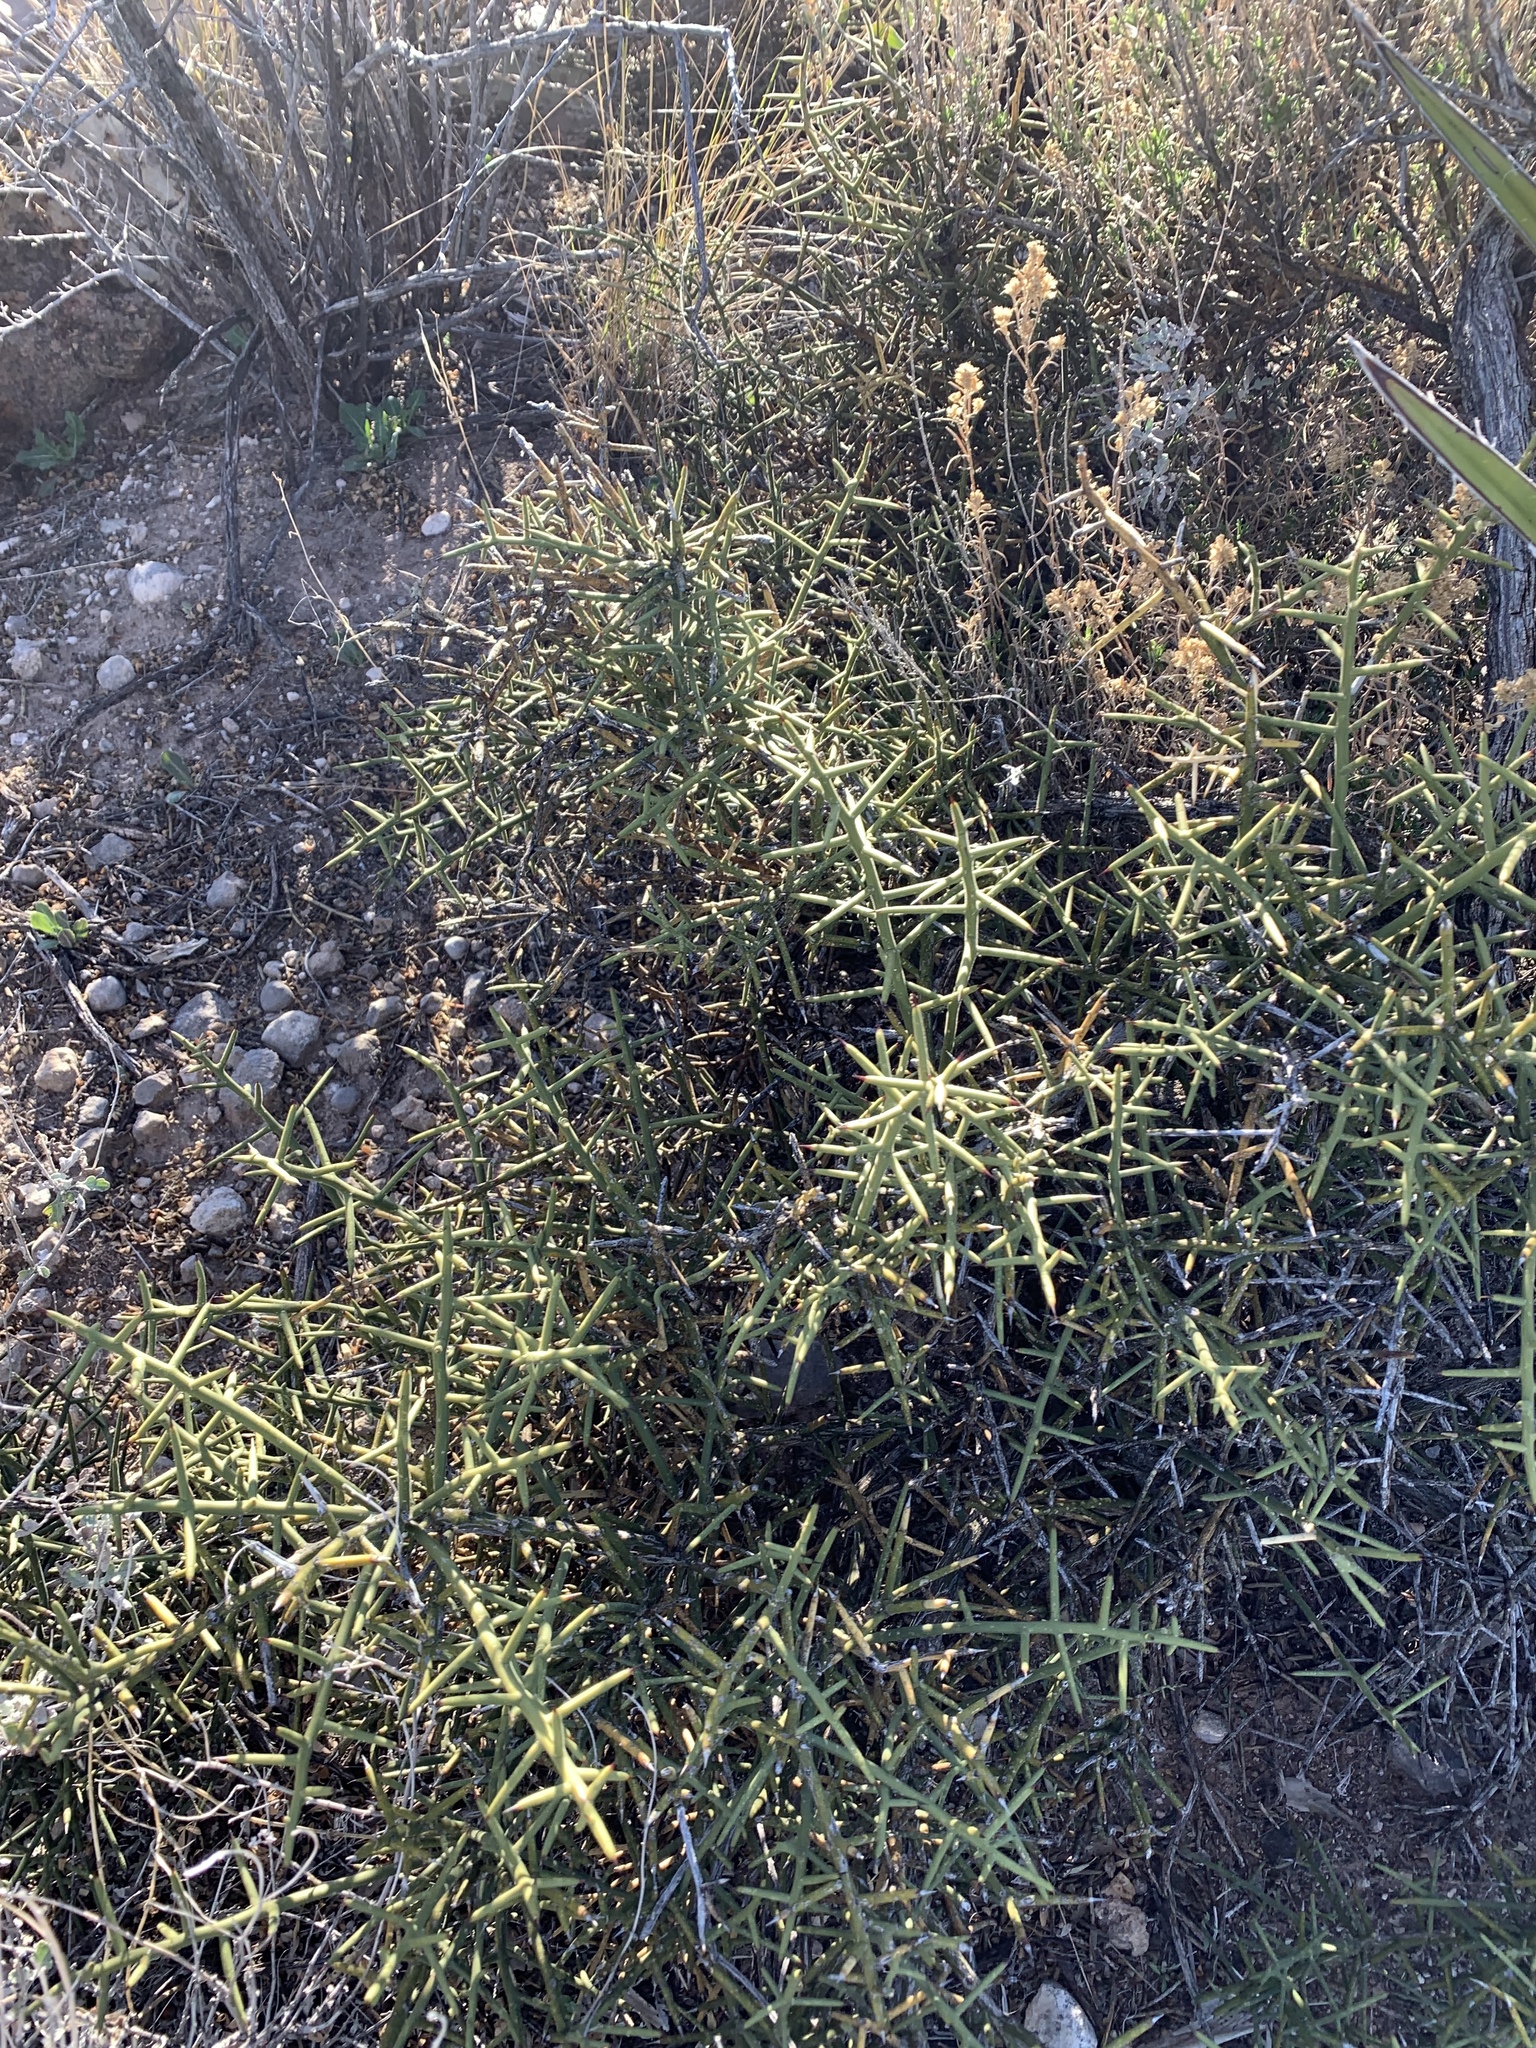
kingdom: Plantae
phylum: Tracheophyta
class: Magnoliopsida
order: Brassicales
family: Koeberliniaceae
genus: Koeberlinia
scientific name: Koeberlinia spinosa
